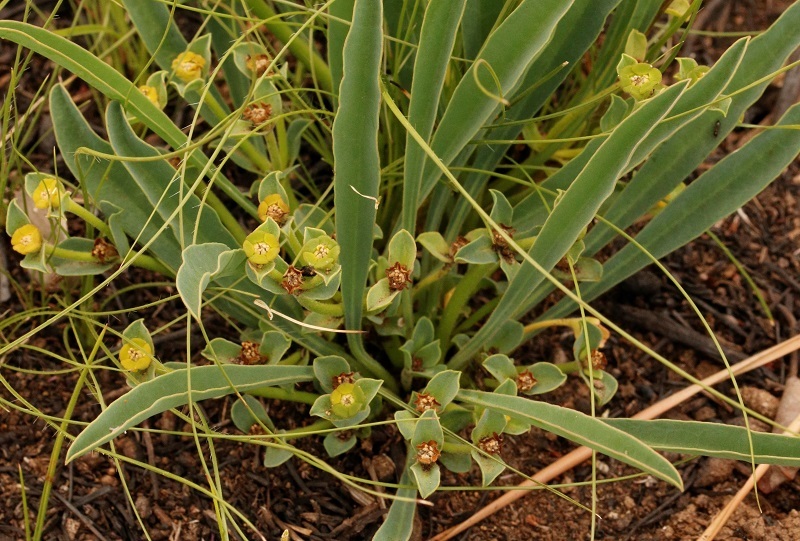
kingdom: Plantae
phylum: Tracheophyta
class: Magnoliopsida
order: Malpighiales
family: Euphorbiaceae
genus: Euphorbia
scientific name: Euphorbia silenifolia
